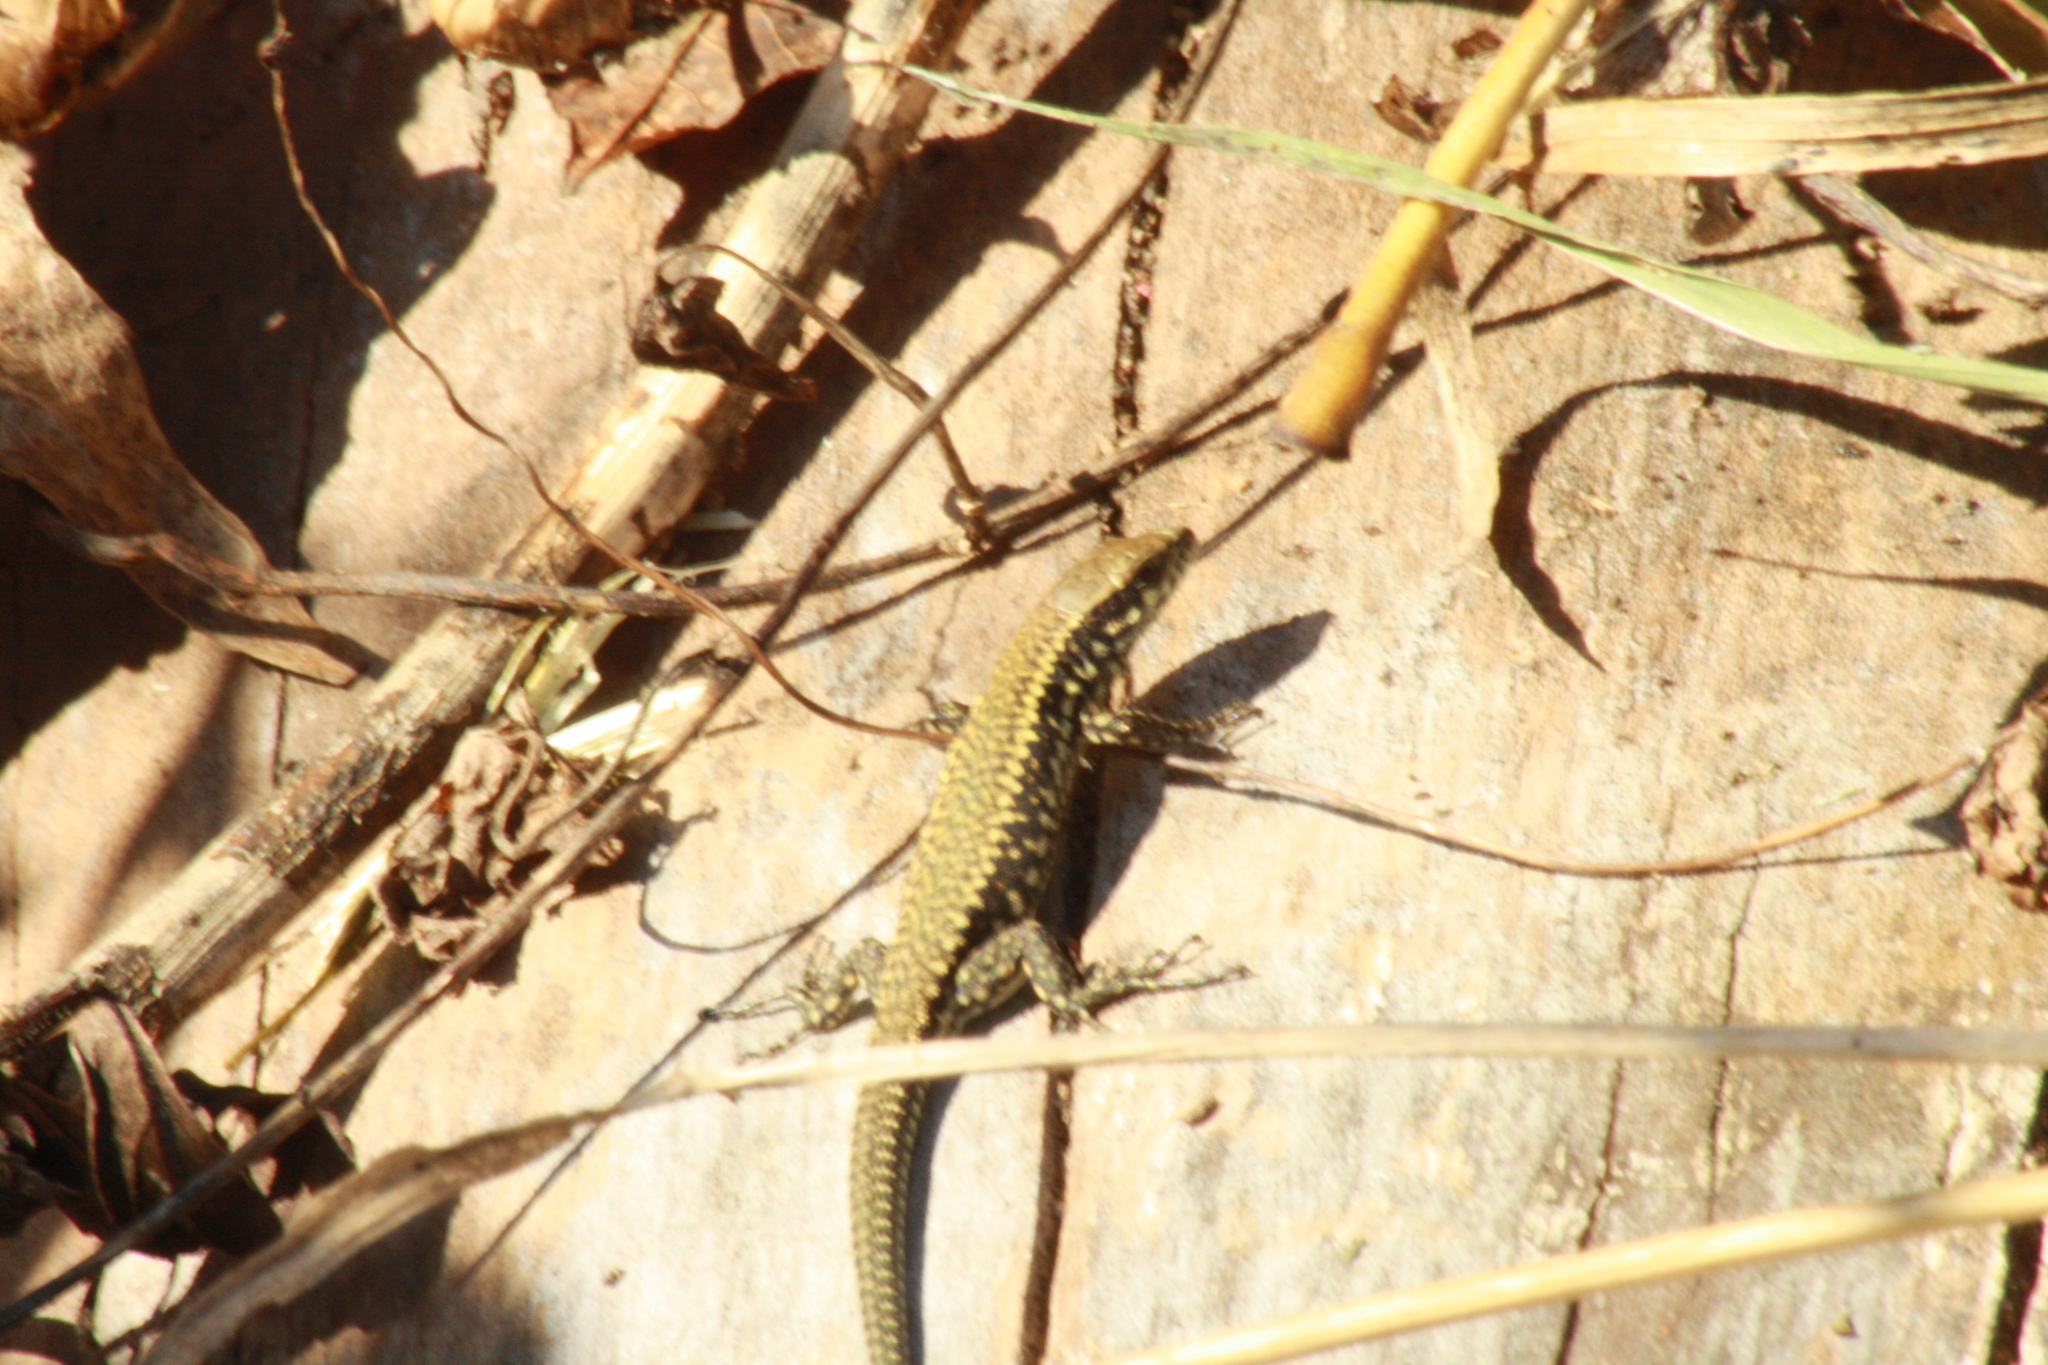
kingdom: Animalia
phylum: Chordata
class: Squamata
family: Lacertidae
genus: Podarcis
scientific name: Podarcis muralis
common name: Common wall lizard
